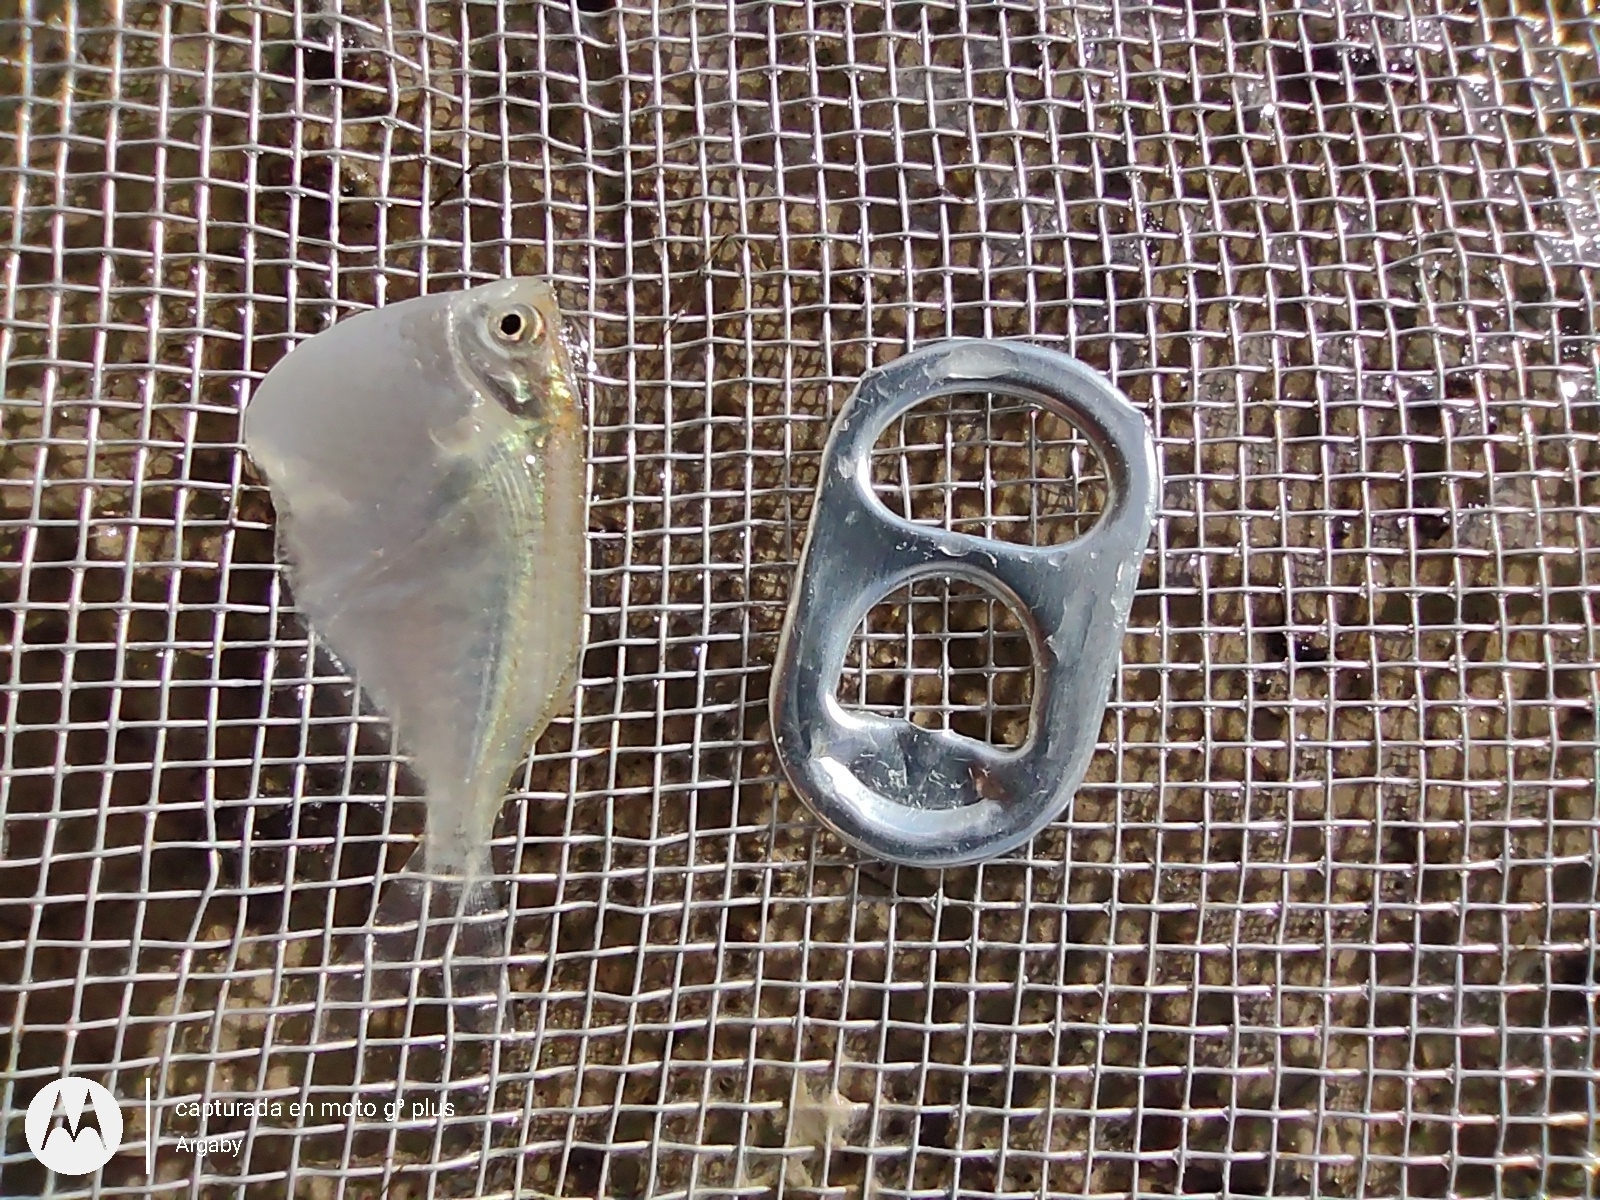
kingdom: Animalia
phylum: Chordata
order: Characiformes
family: Gasteropelecidae
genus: Thoracocharax
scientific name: Thoracocharax stellatus
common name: Hatchet tetra
